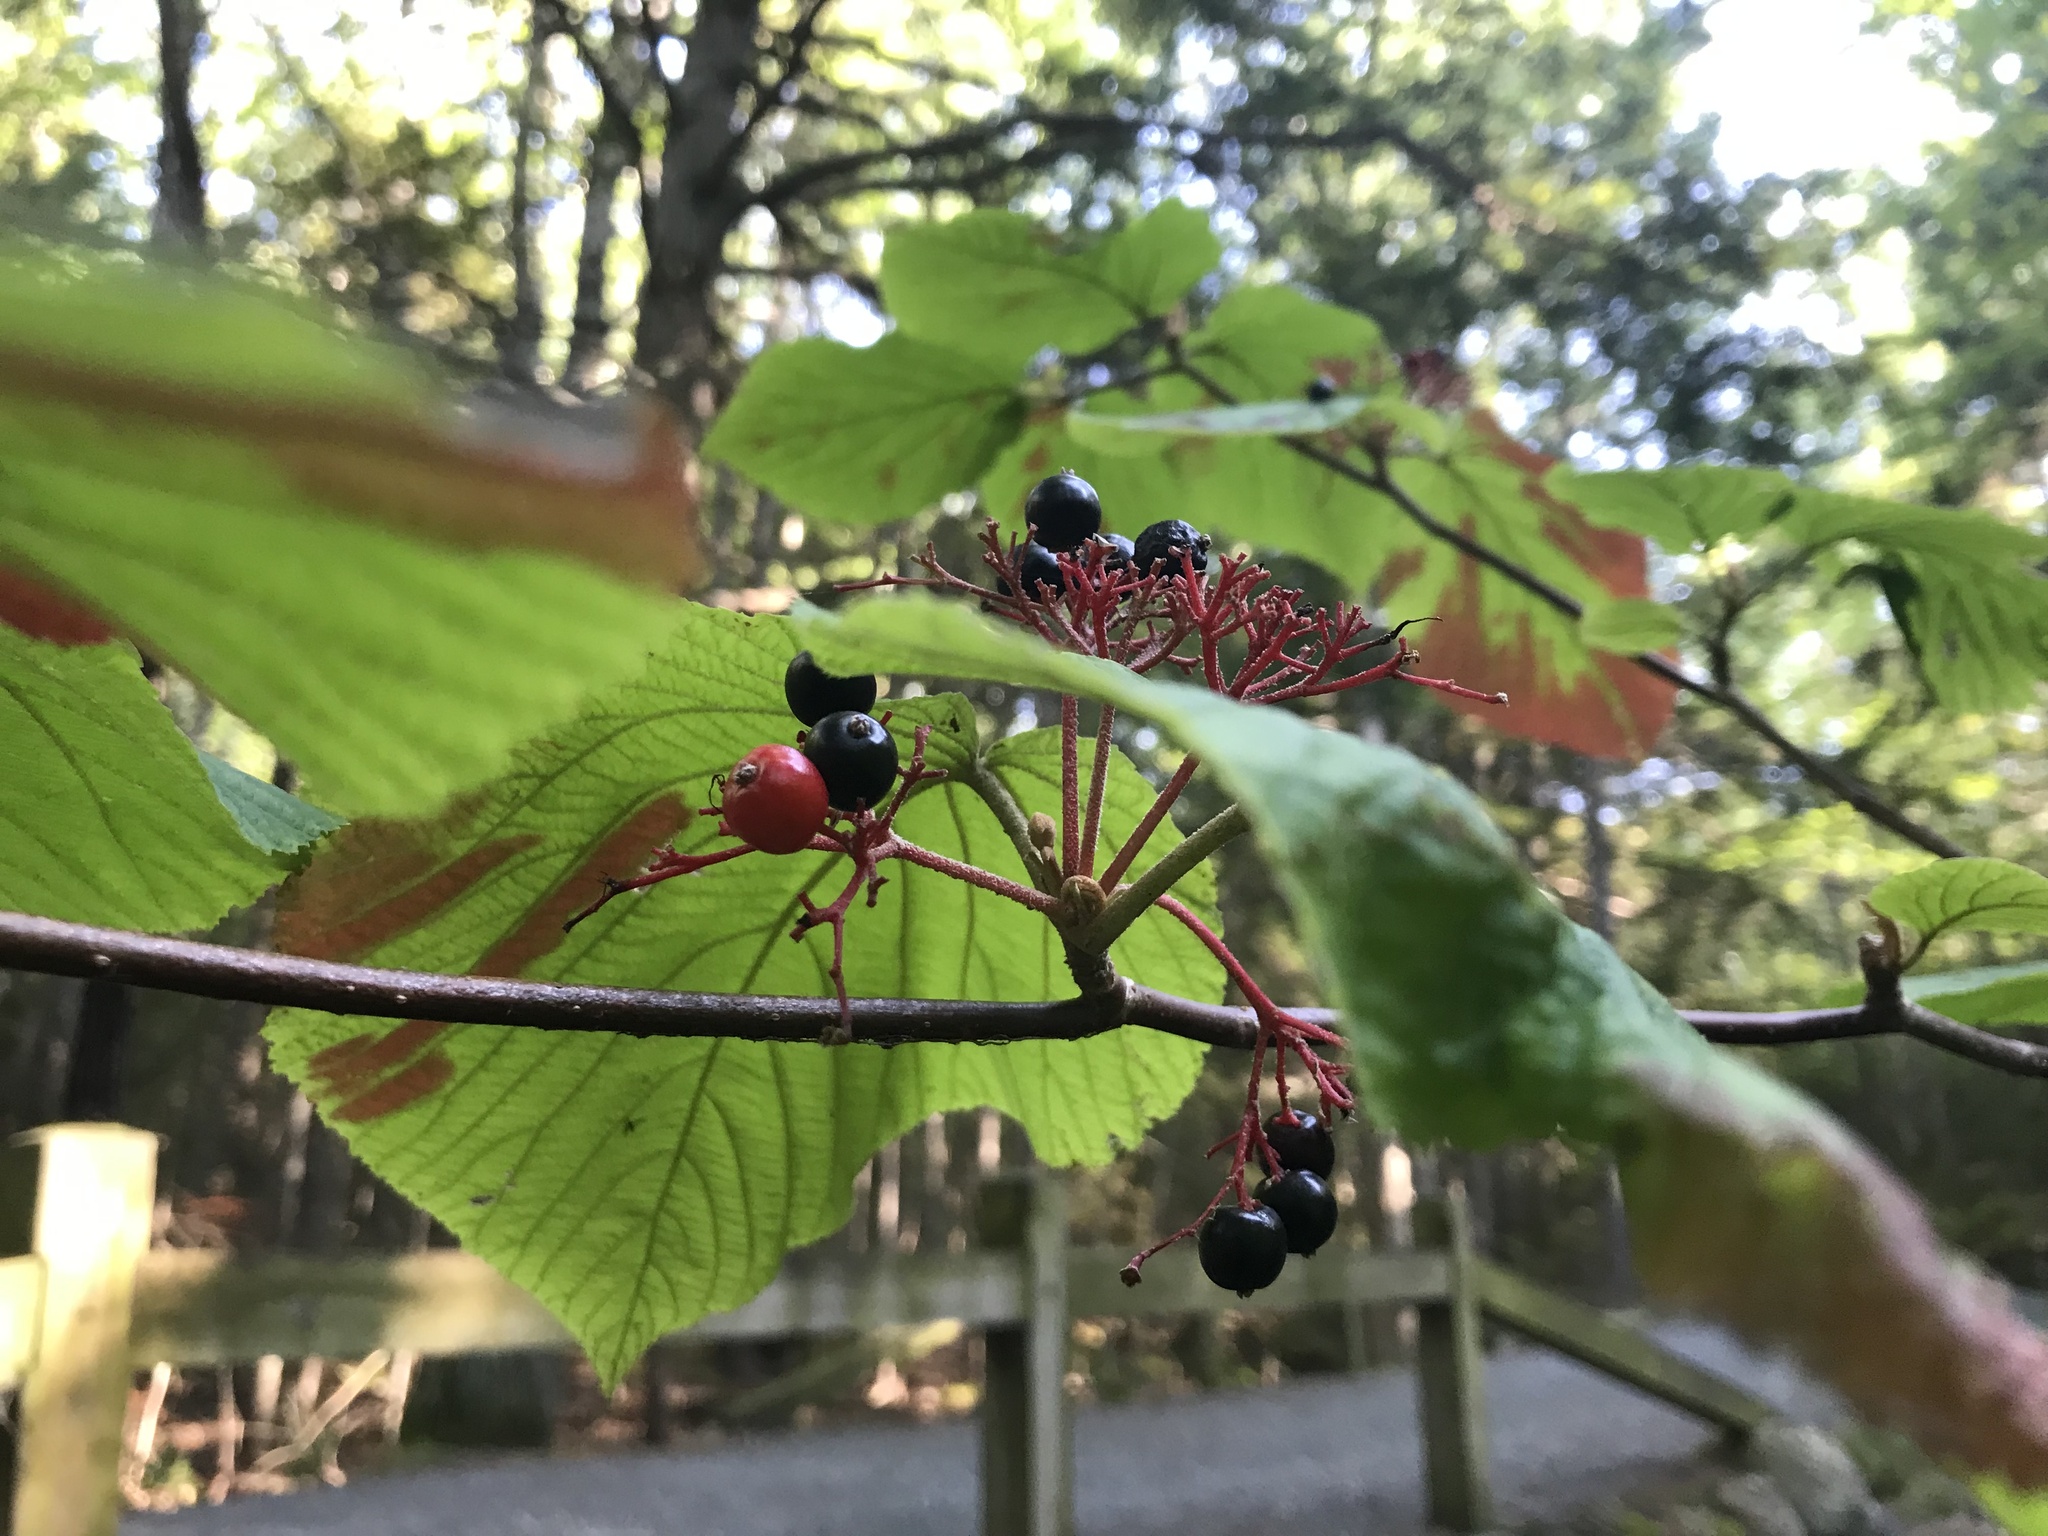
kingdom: Plantae
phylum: Tracheophyta
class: Magnoliopsida
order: Dipsacales
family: Viburnaceae
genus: Viburnum
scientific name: Viburnum lantanoides
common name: Hobblebush
